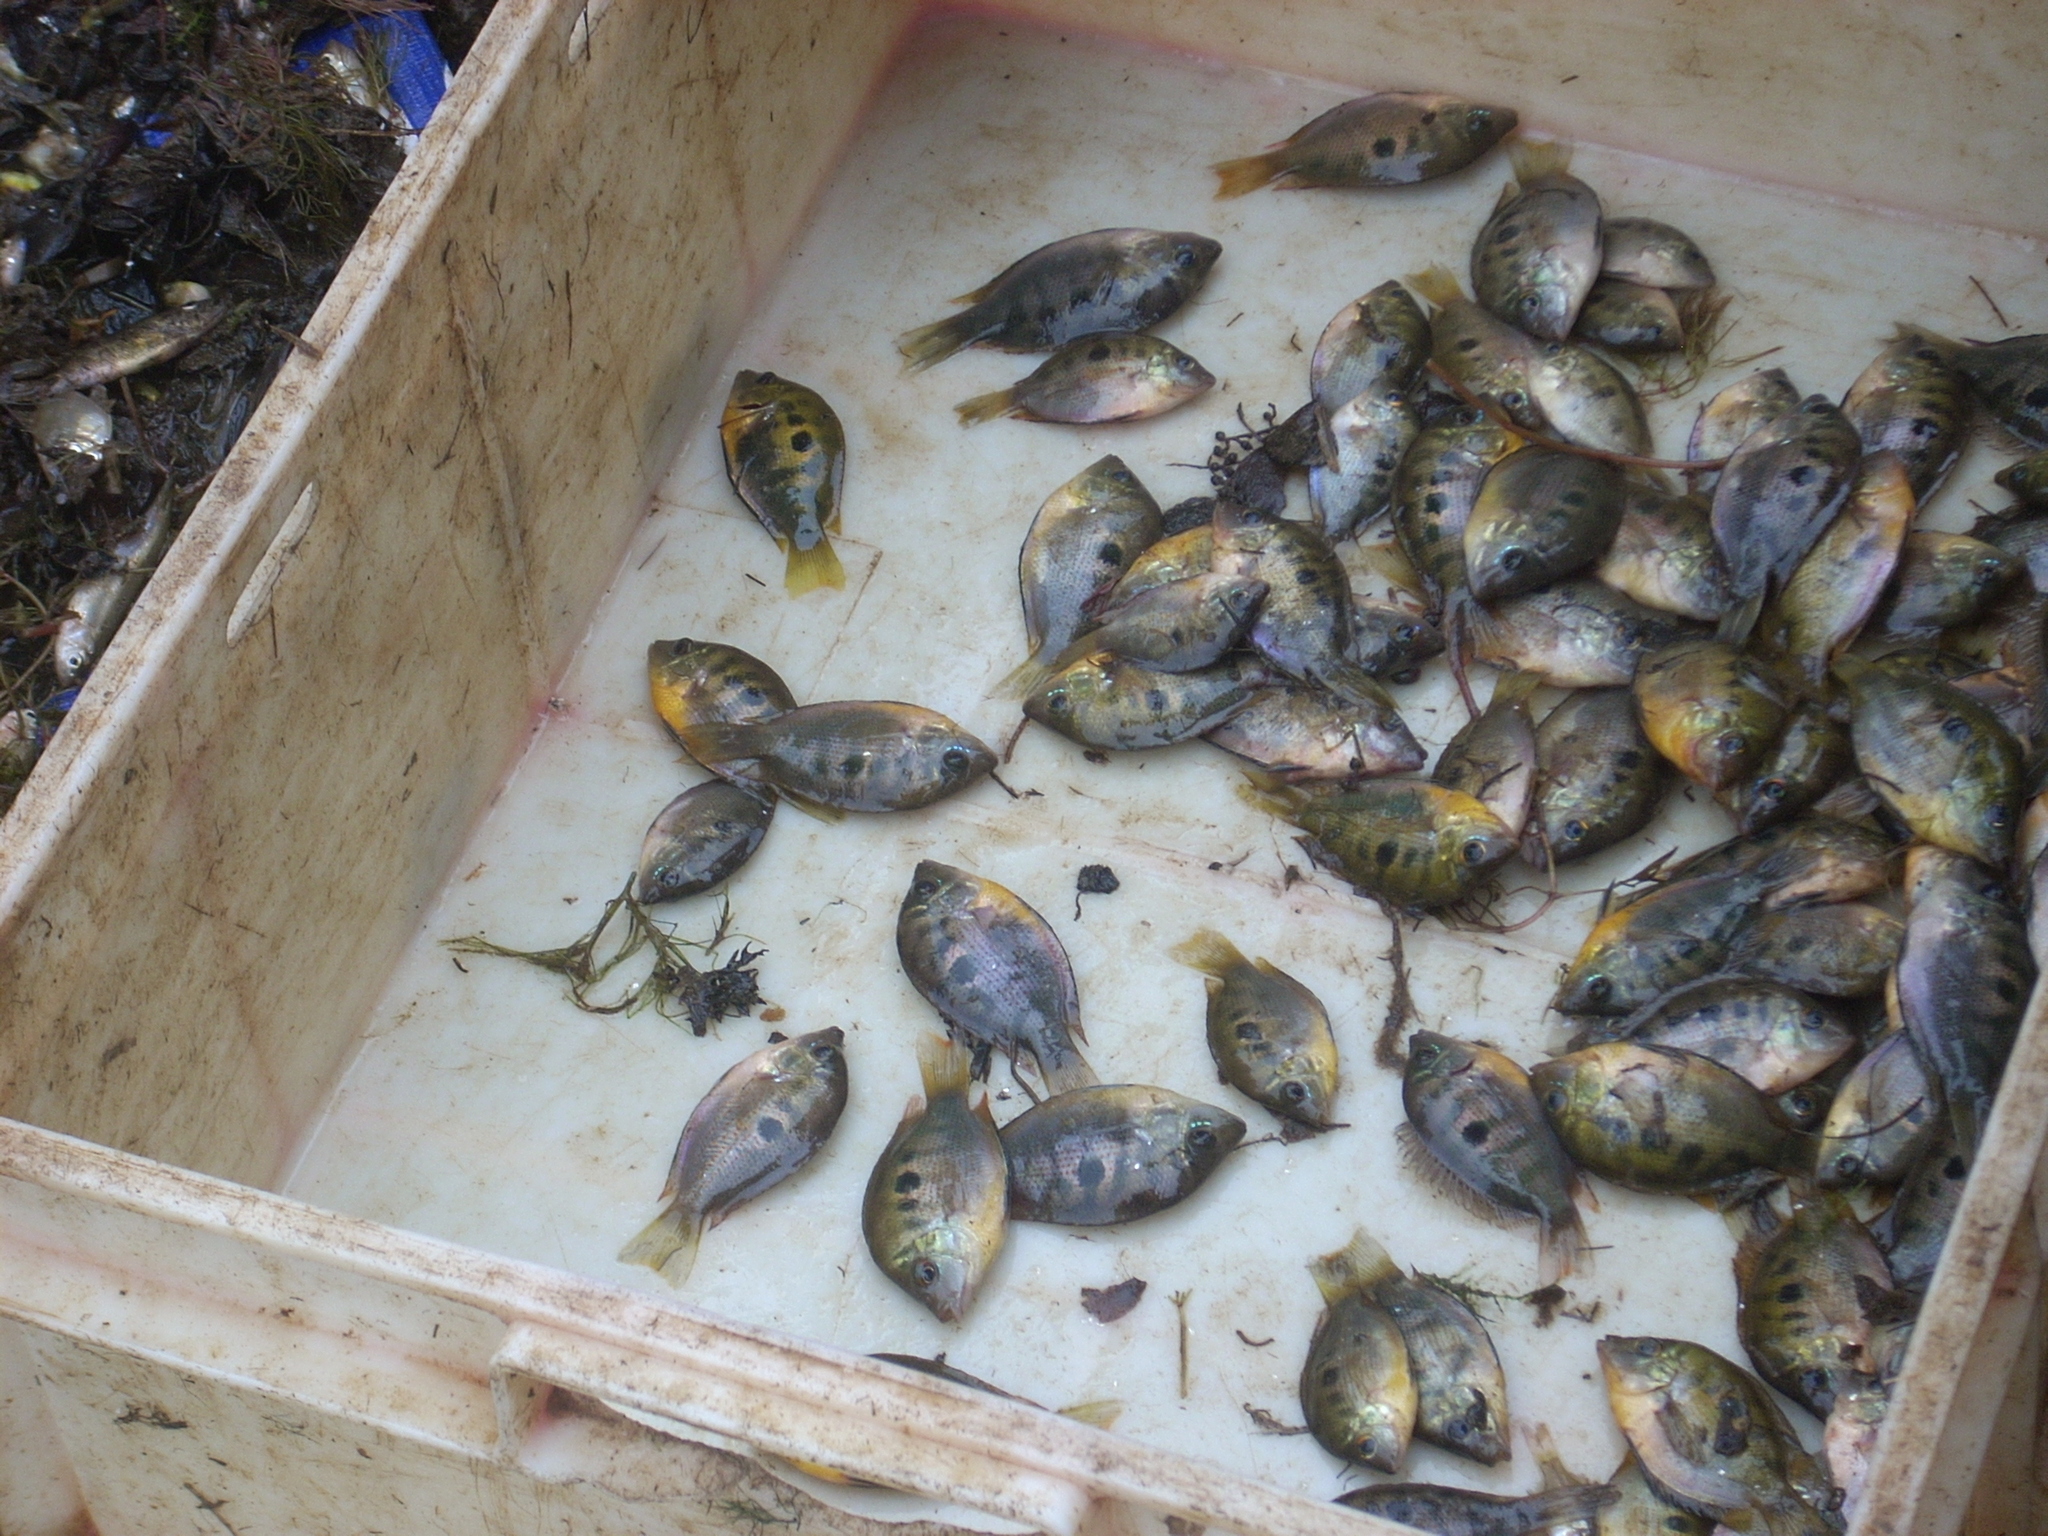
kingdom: Animalia
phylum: Chordata
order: Perciformes
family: Cichlidae
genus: Etroplus
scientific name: Etroplus maculatus
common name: Orange chromide
